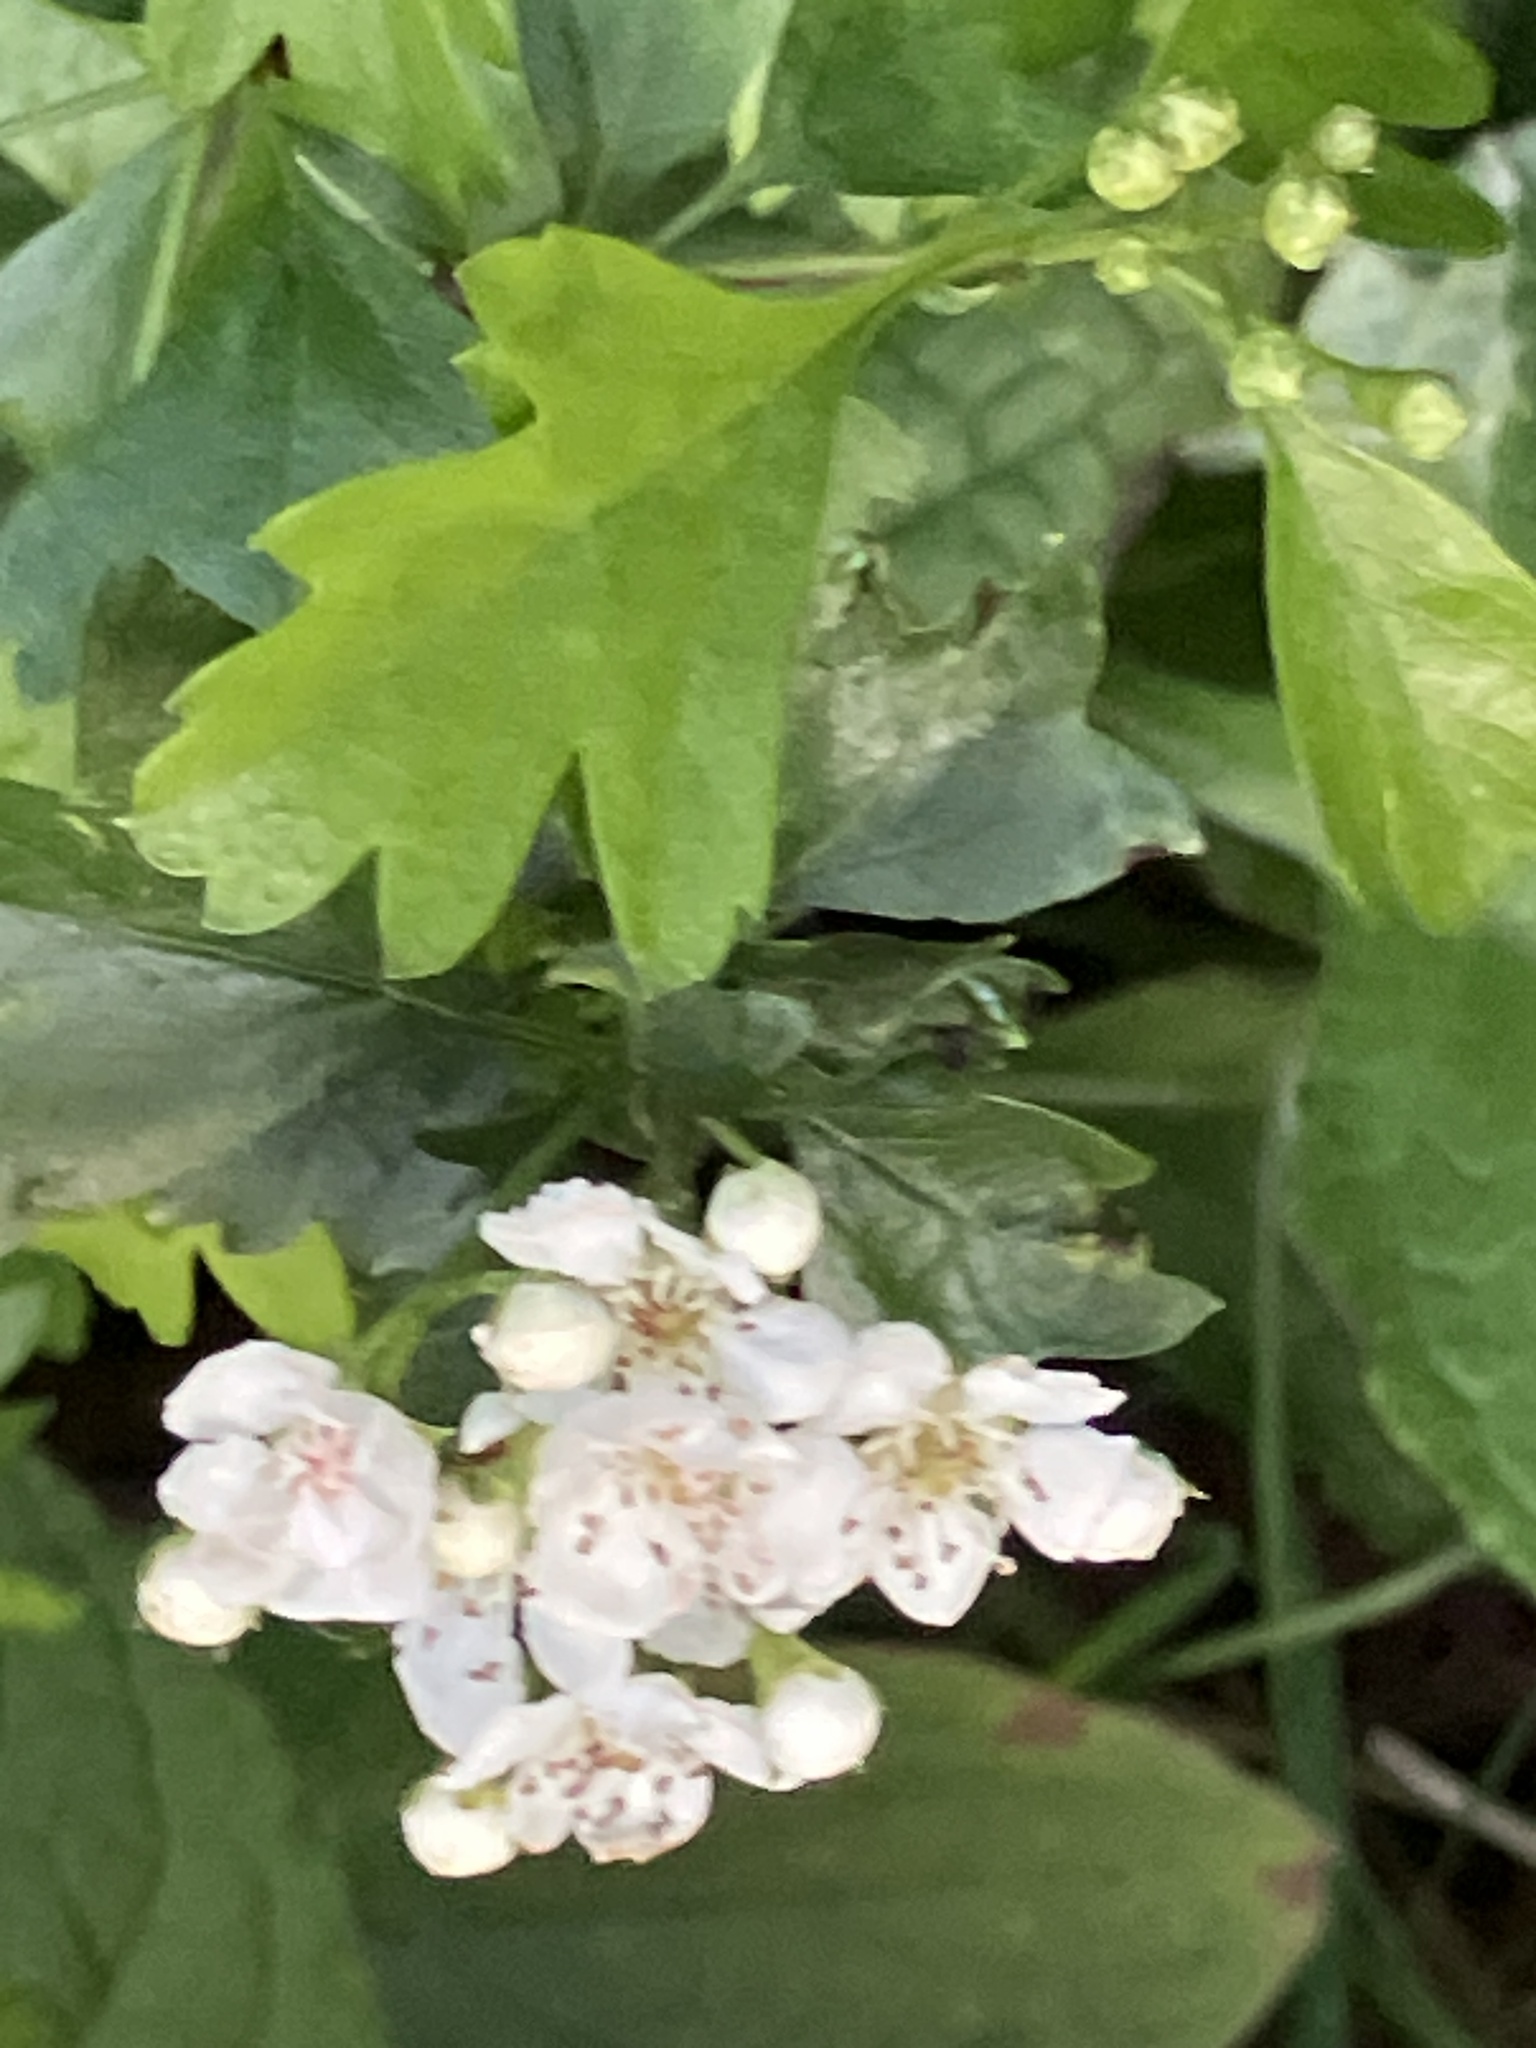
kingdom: Plantae
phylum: Tracheophyta
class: Magnoliopsida
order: Rosales
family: Rosaceae
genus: Crataegus
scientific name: Crataegus monogyna
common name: Hawthorn
